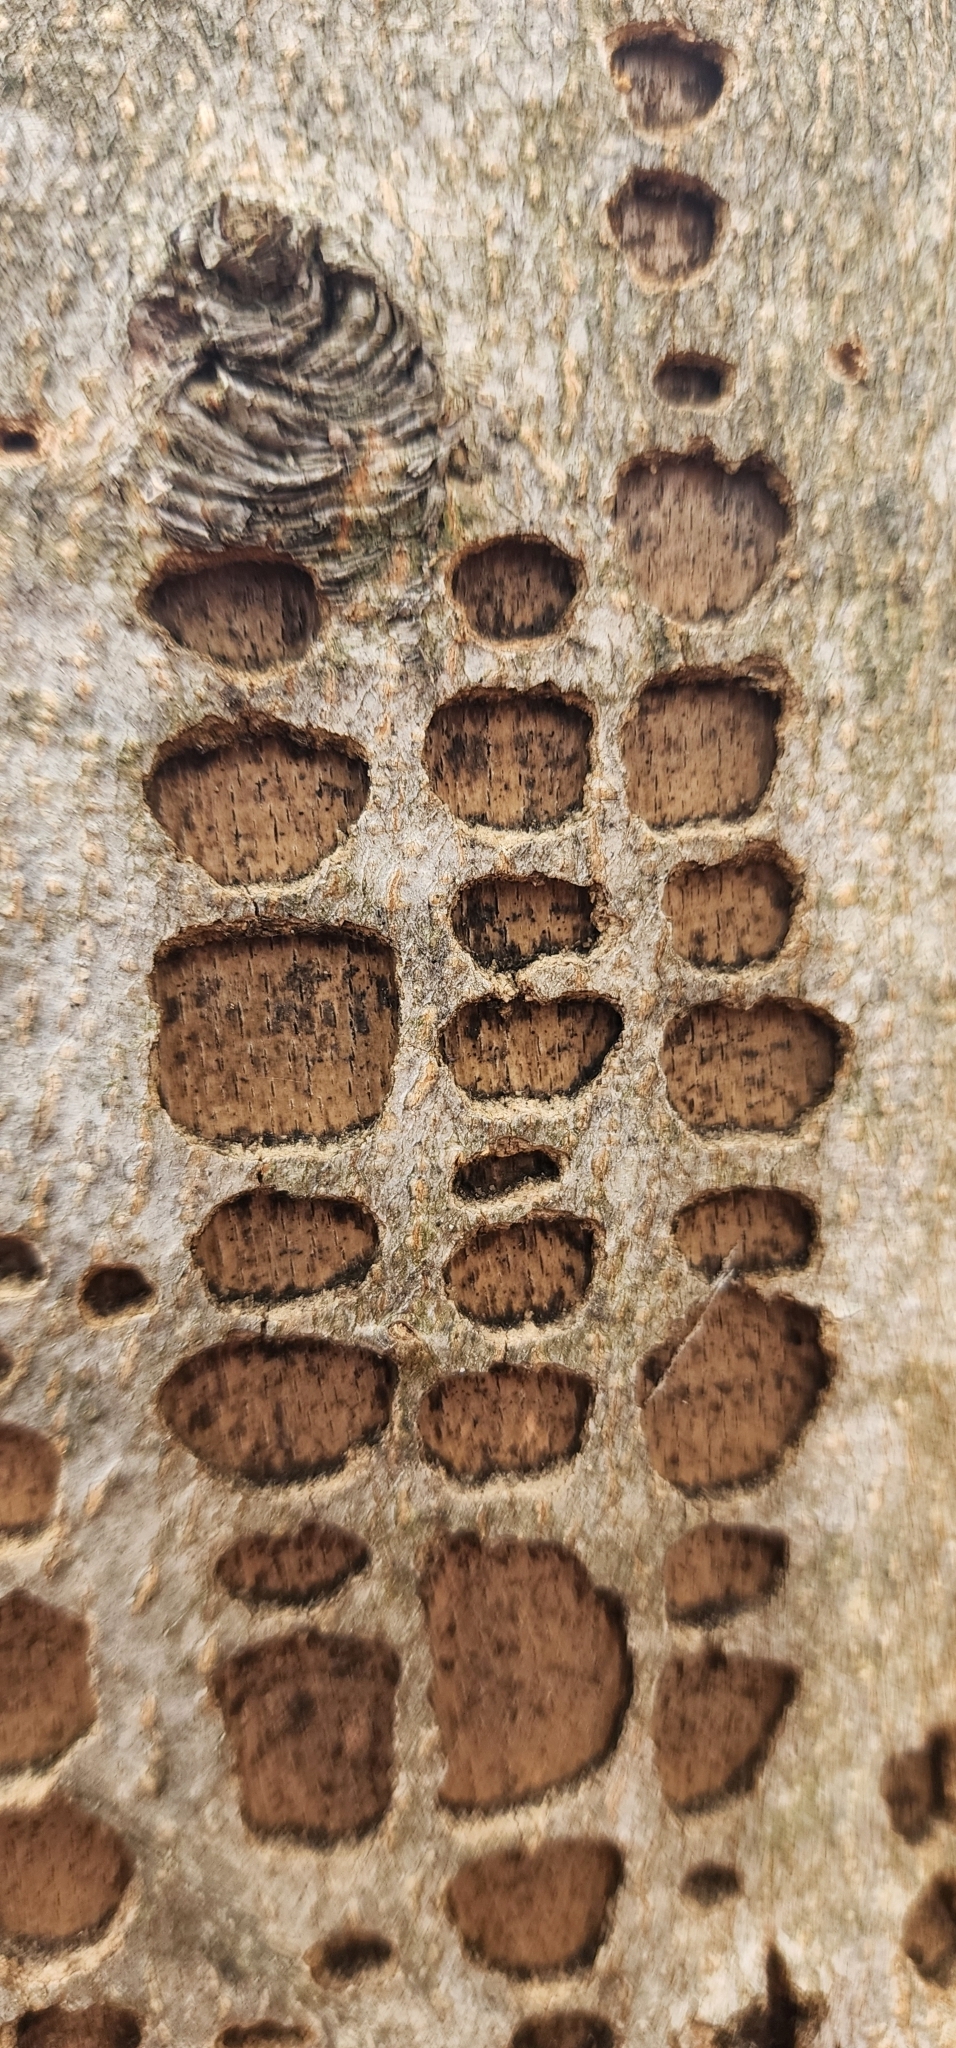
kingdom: Animalia
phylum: Chordata
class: Aves
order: Piciformes
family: Picidae
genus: Sphyrapicus
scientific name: Sphyrapicus varius
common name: Yellow-bellied sapsucker
